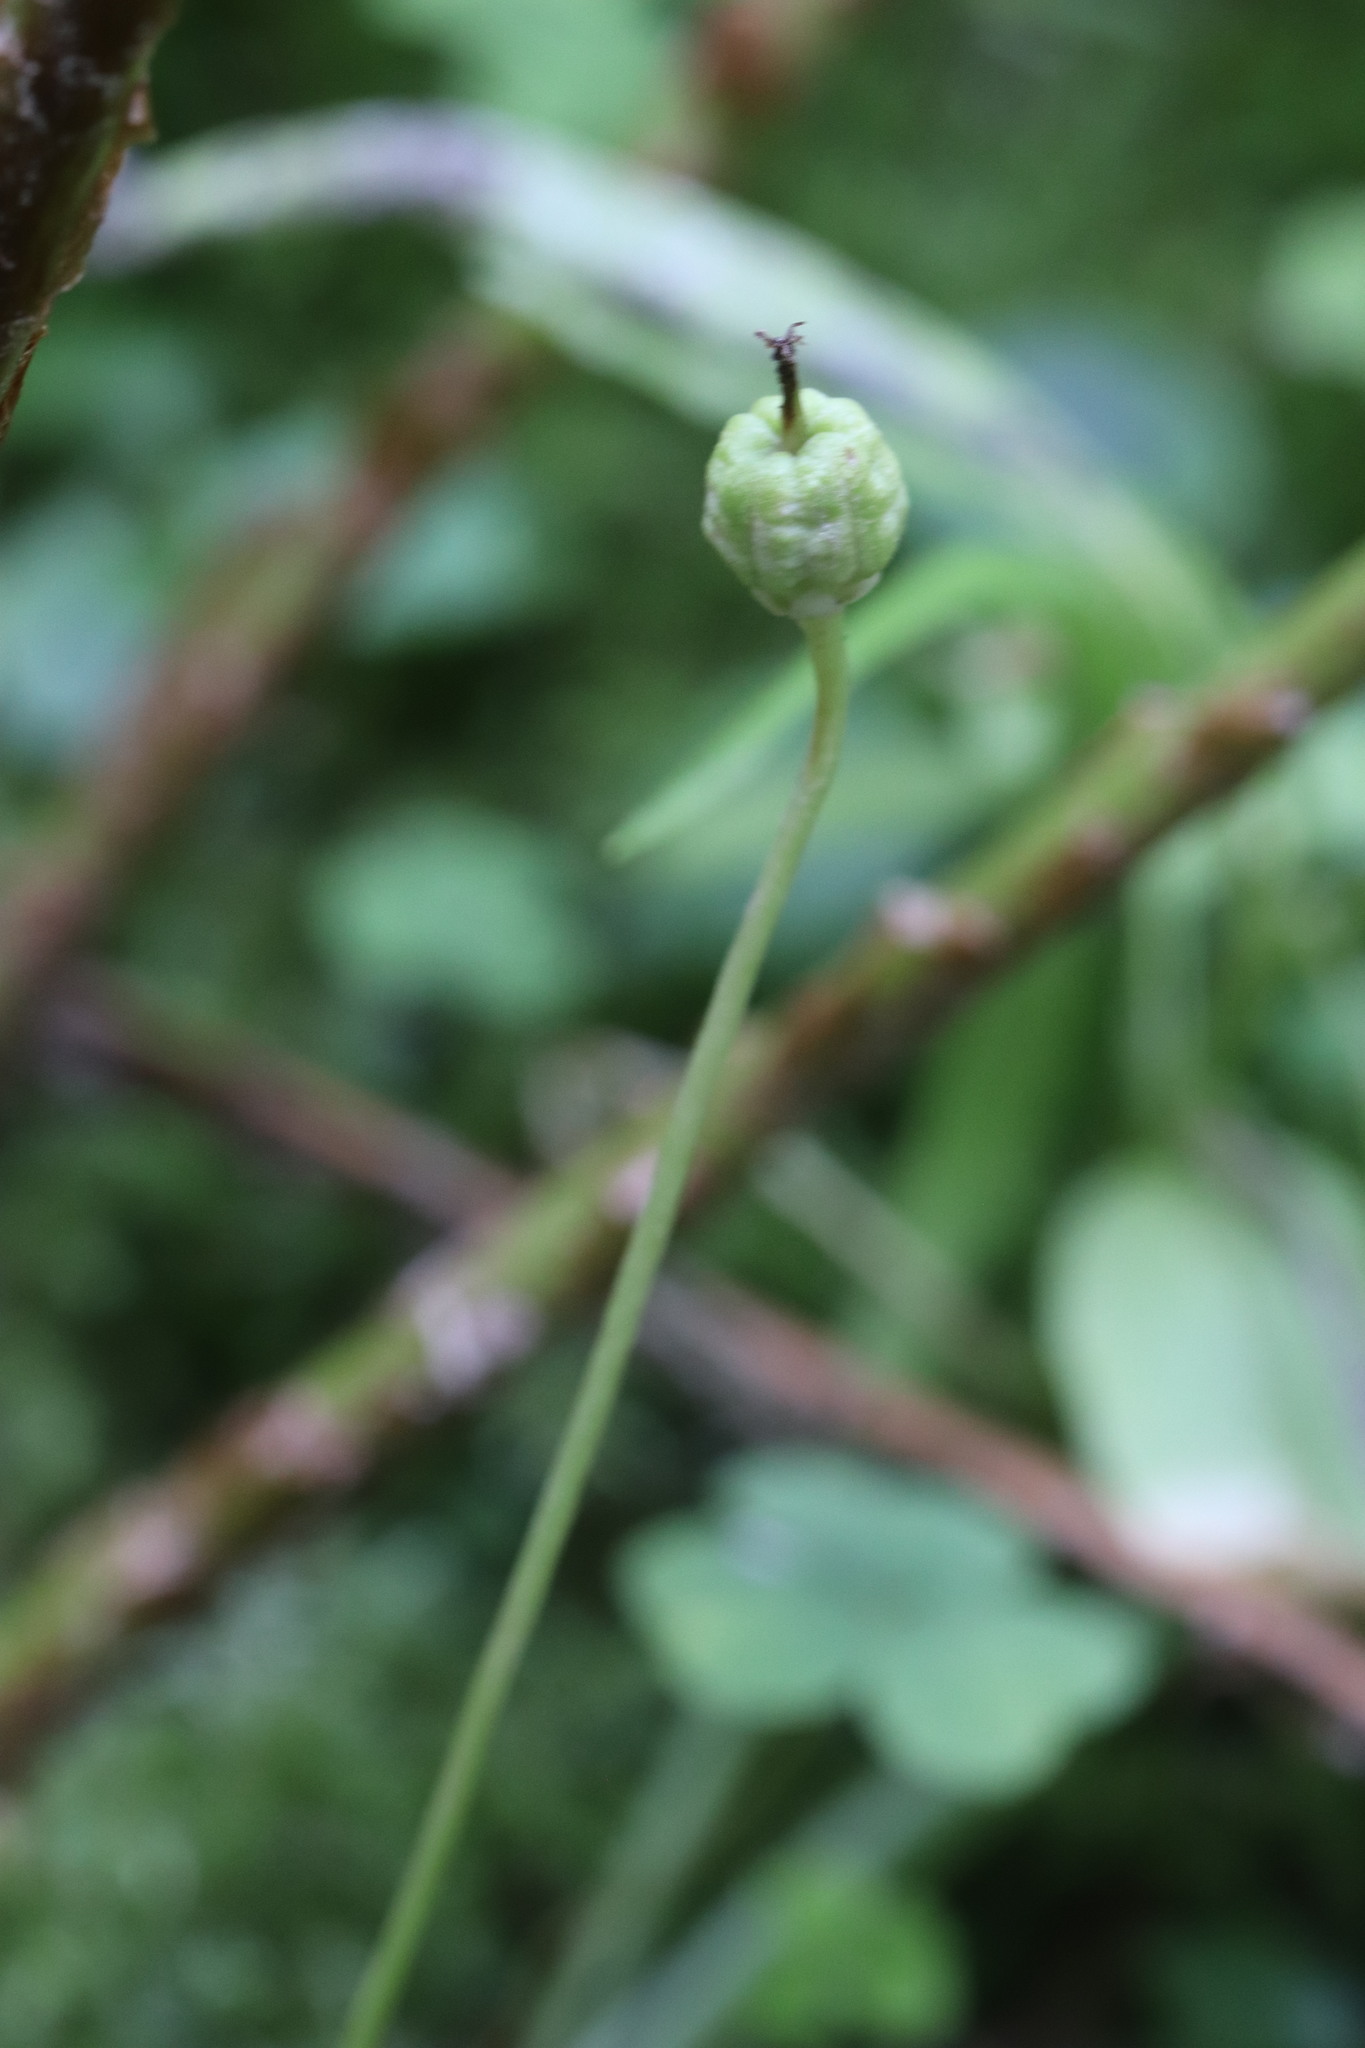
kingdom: Plantae
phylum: Tracheophyta
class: Magnoliopsida
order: Ericales
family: Ericaceae
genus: Moneses
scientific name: Moneses uniflora
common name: One-flowered wintergreen
